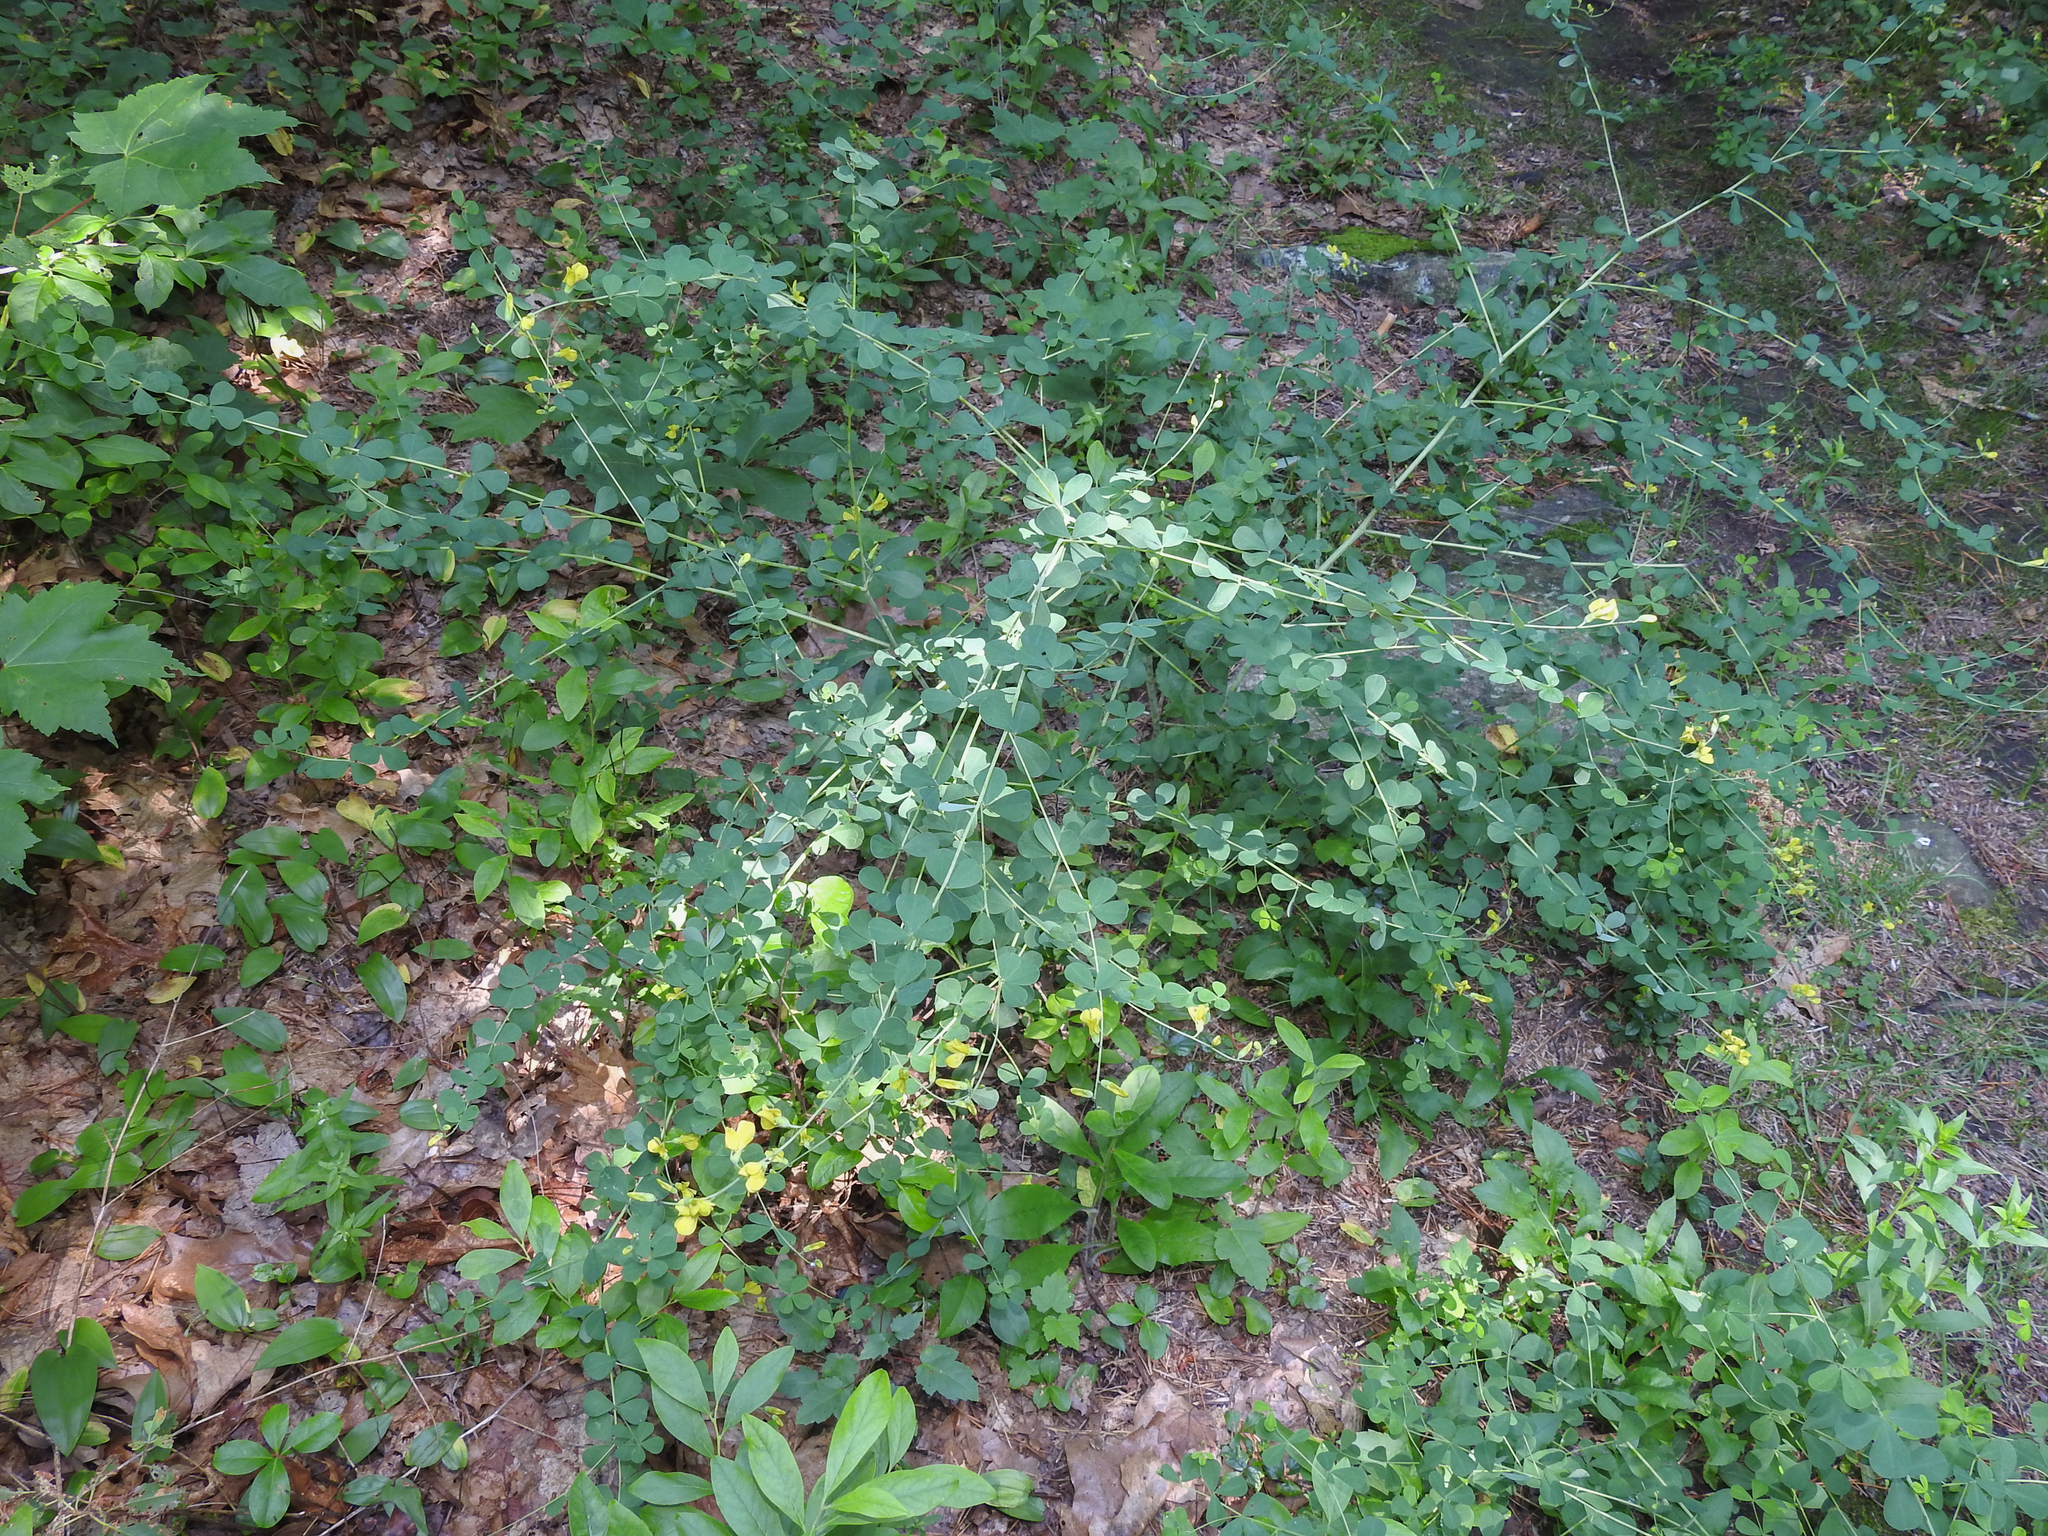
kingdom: Plantae
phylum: Tracheophyta
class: Magnoliopsida
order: Fabales
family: Fabaceae
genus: Baptisia
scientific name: Baptisia tinctoria
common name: Wild indigo
